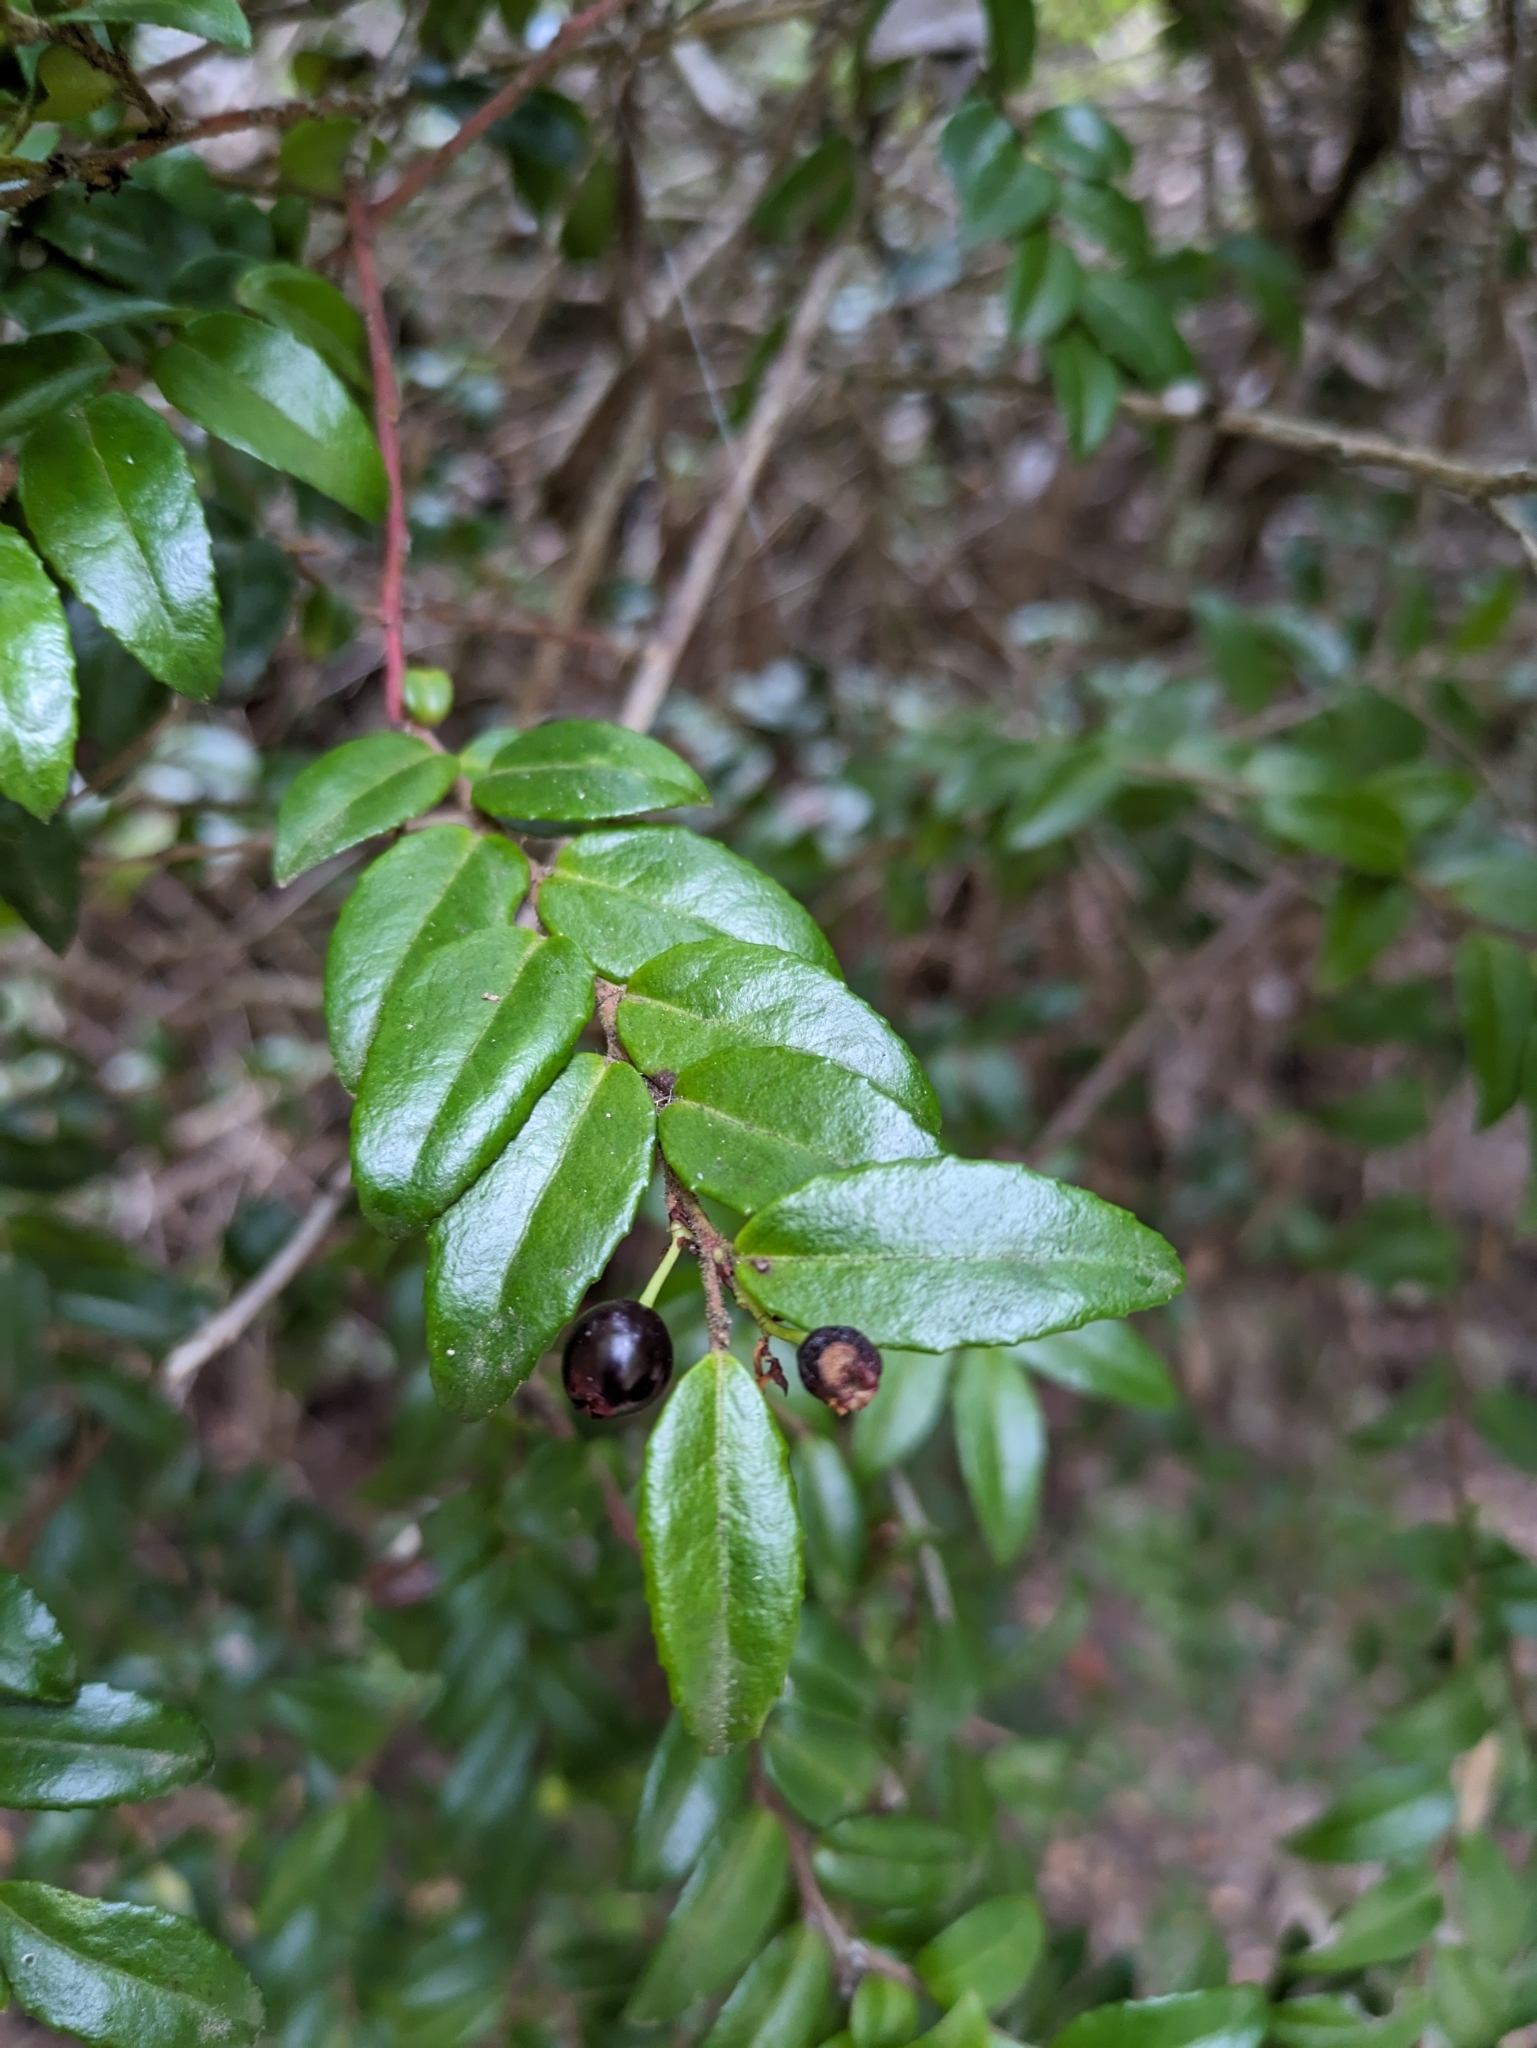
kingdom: Plantae
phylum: Tracheophyta
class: Magnoliopsida
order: Ericales
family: Ericaceae
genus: Vaccinium
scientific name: Vaccinium ovatum
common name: California-huckleberry
